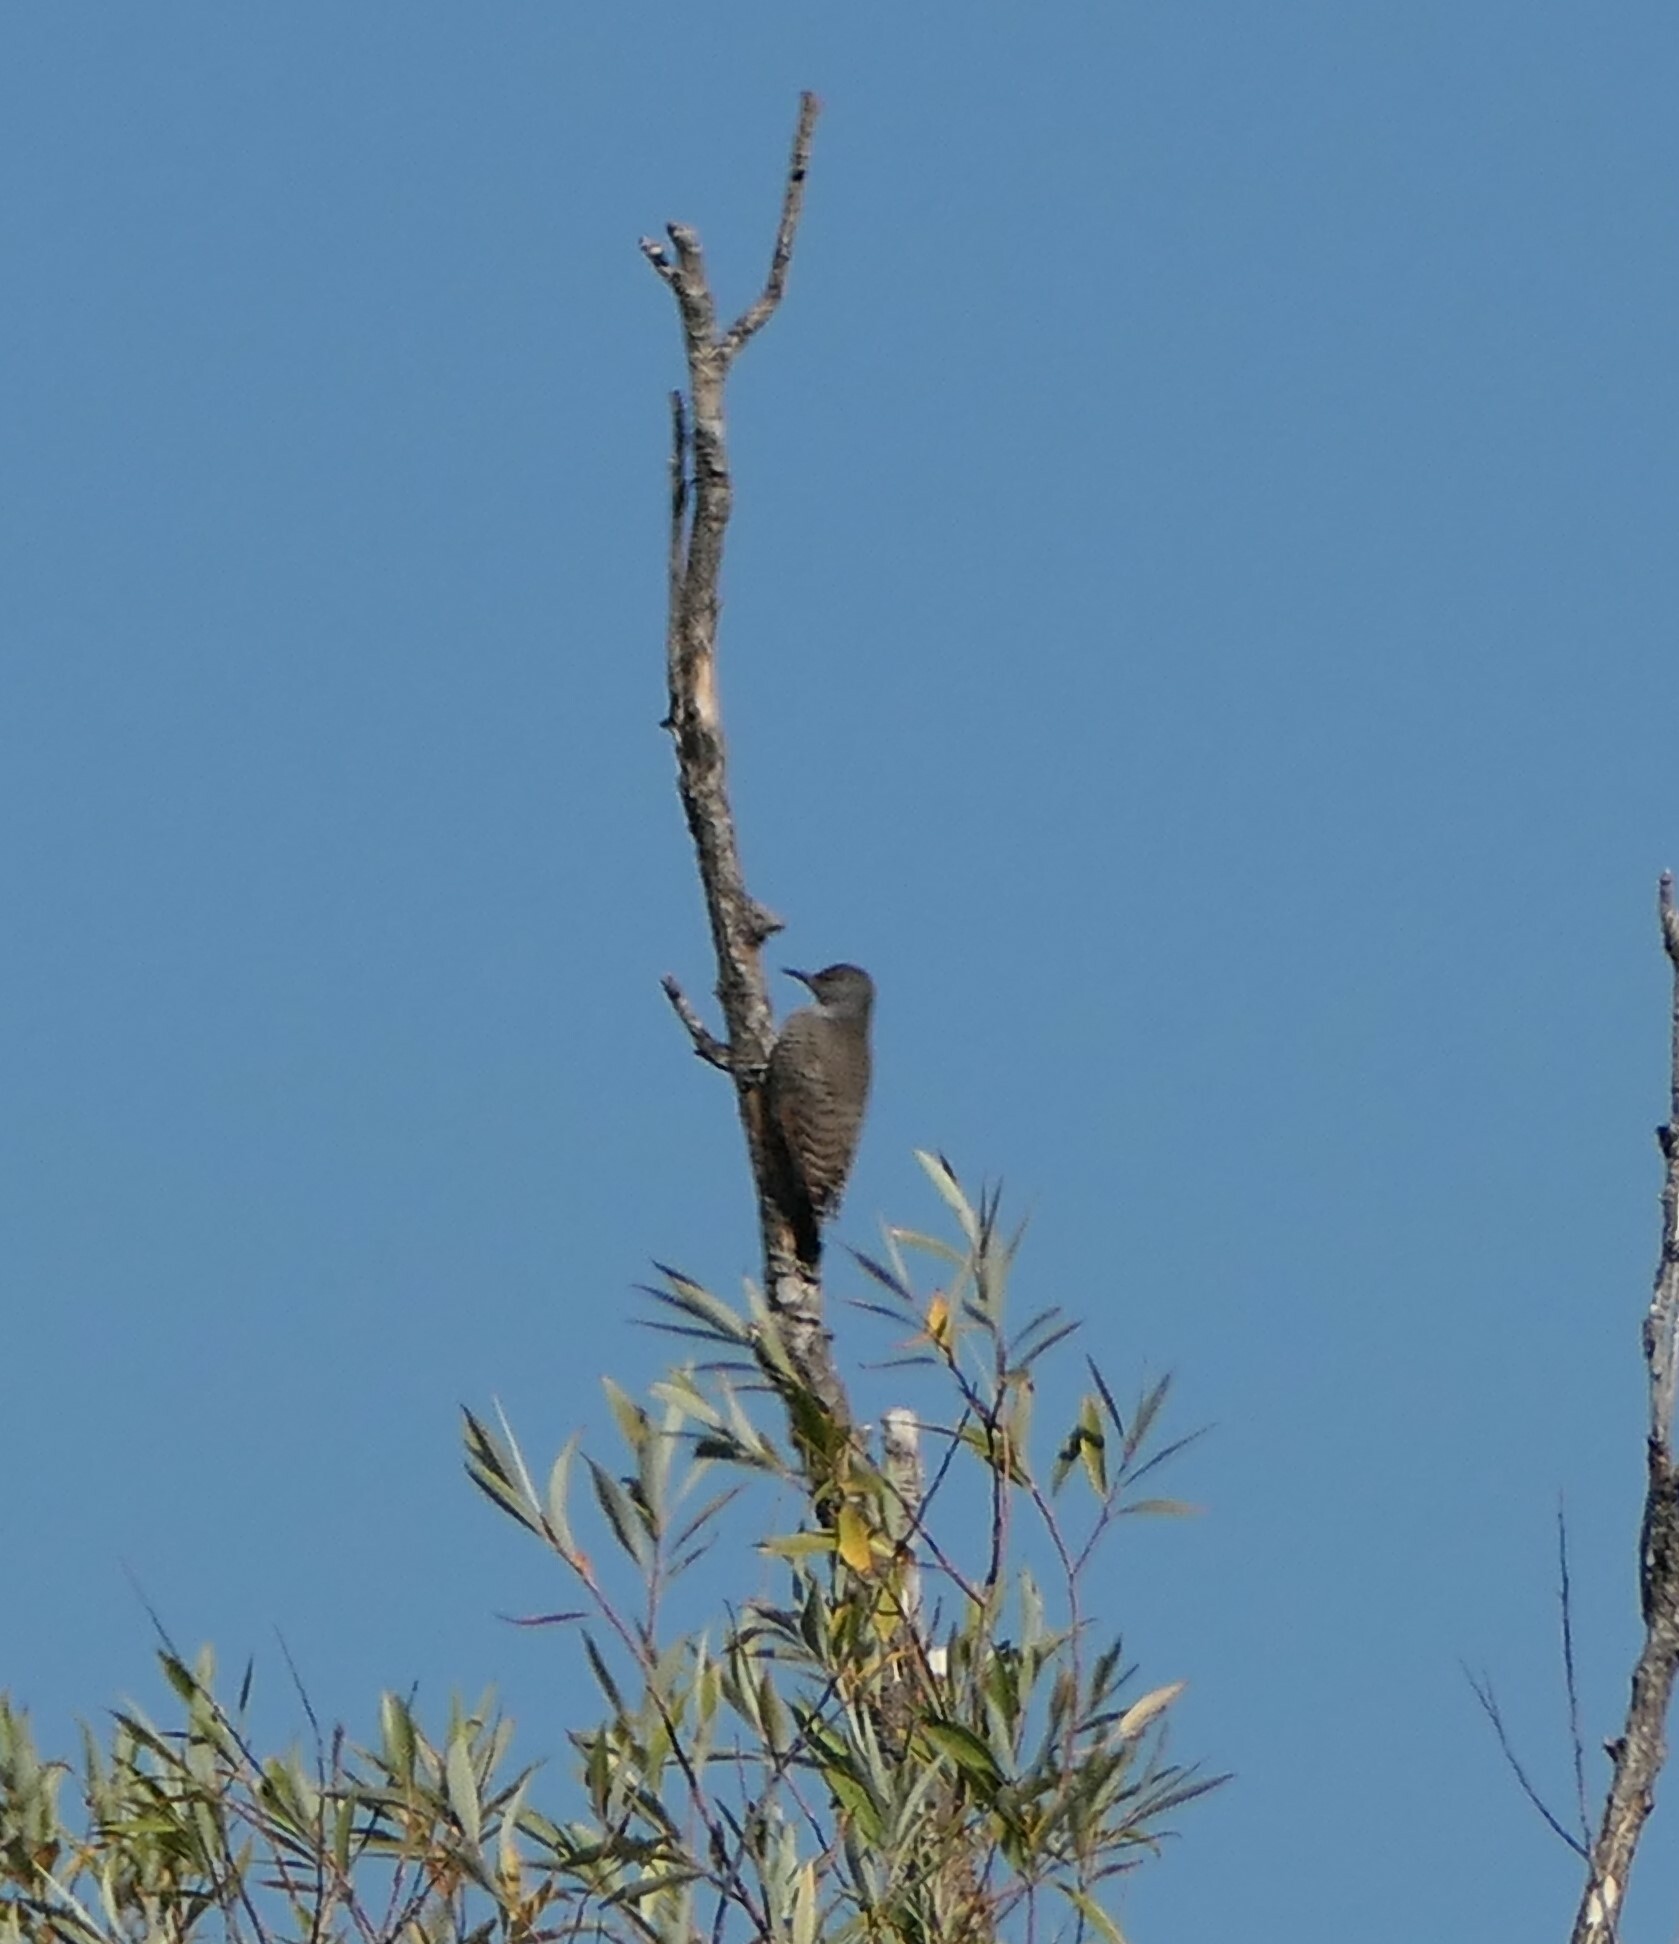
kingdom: Animalia
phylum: Chordata
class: Aves
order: Piciformes
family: Picidae
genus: Colaptes
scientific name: Colaptes auratus
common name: Northern flicker
